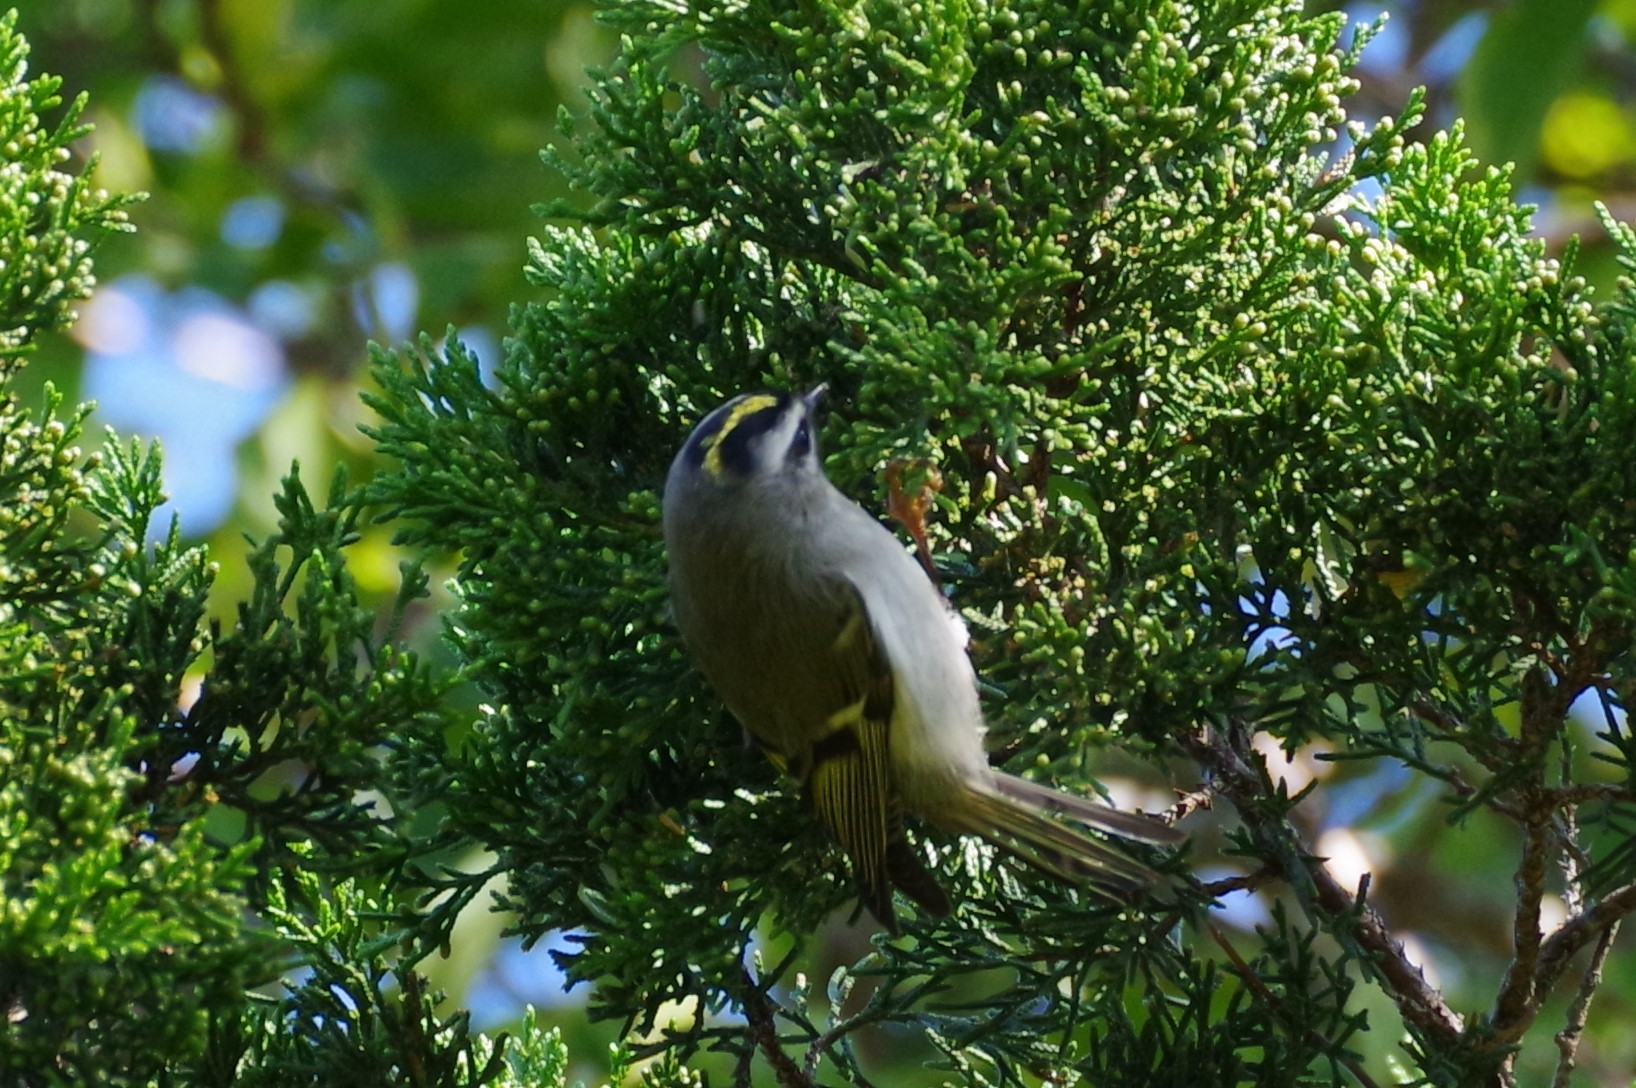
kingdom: Animalia
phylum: Chordata
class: Aves
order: Passeriformes
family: Regulidae
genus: Regulus
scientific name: Regulus satrapa
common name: Golden-crowned kinglet
